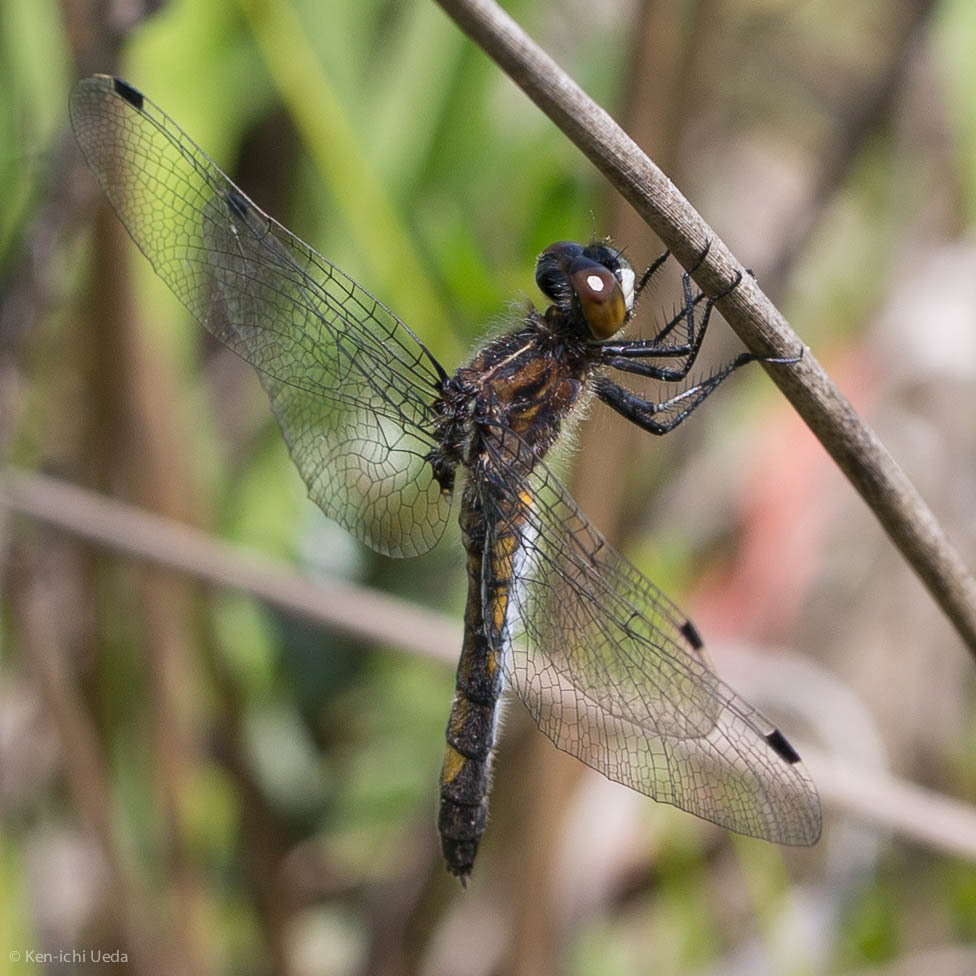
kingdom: Animalia
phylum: Arthropoda
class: Insecta
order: Odonata
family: Libellulidae
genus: Leucorrhinia
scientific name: Leucorrhinia intacta
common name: Dot-tailed whiteface
